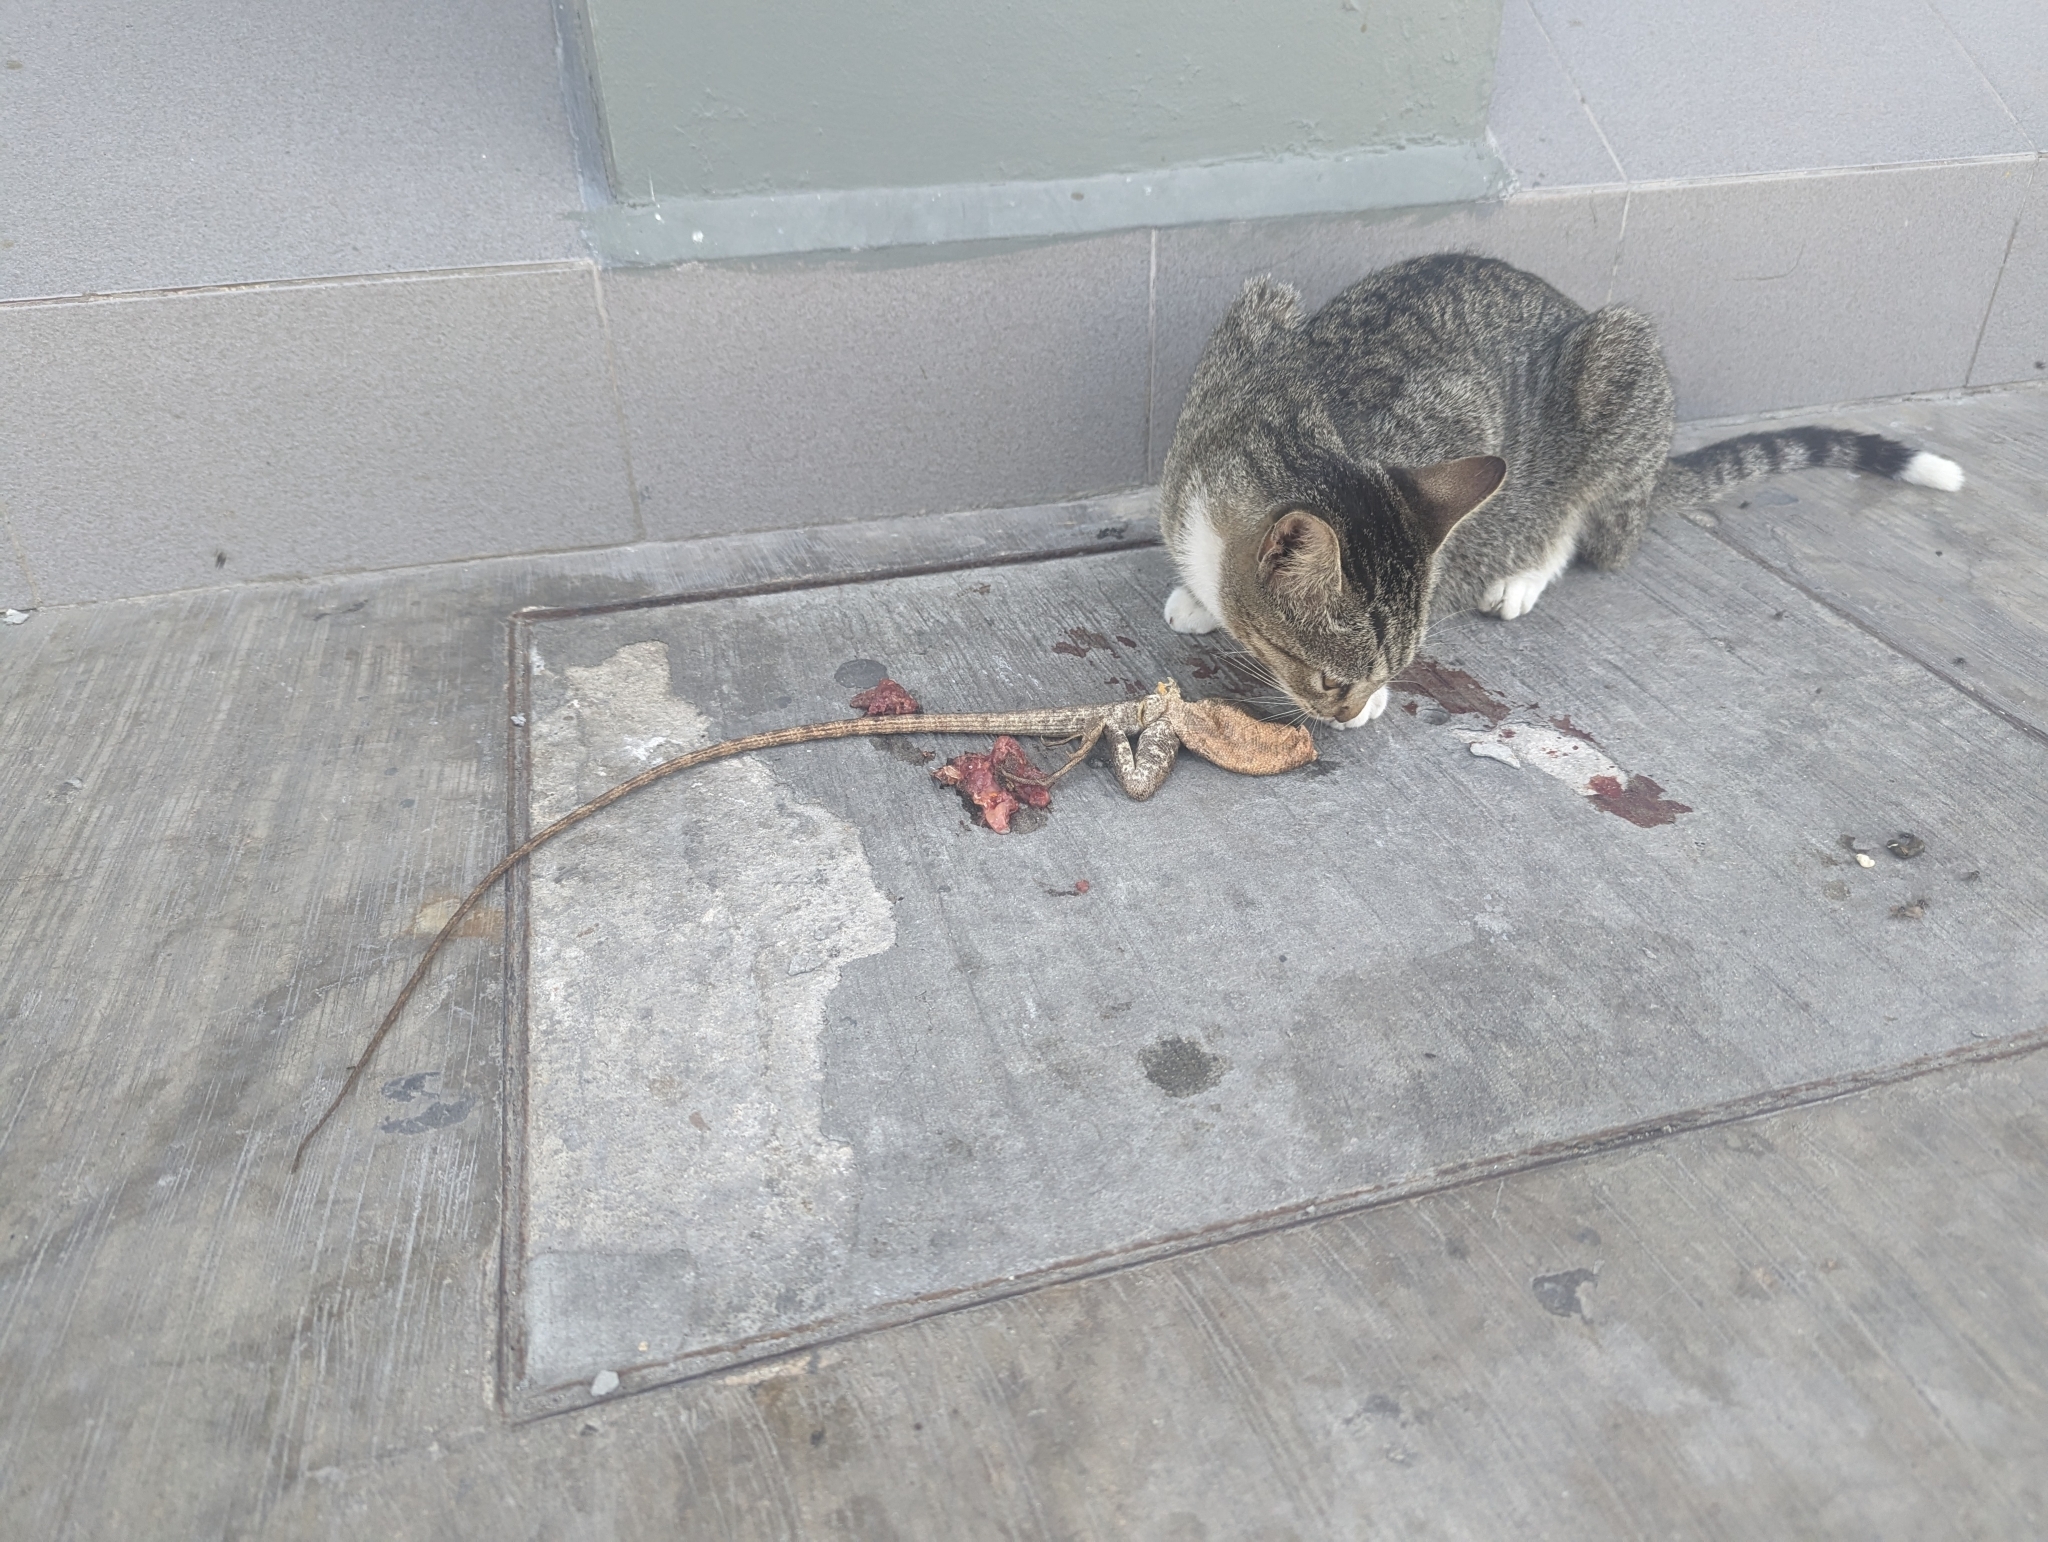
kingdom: Animalia
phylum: Chordata
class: Squamata
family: Corytophanidae
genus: Basiliscus
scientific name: Basiliscus vittatus
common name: Brown basilisk
